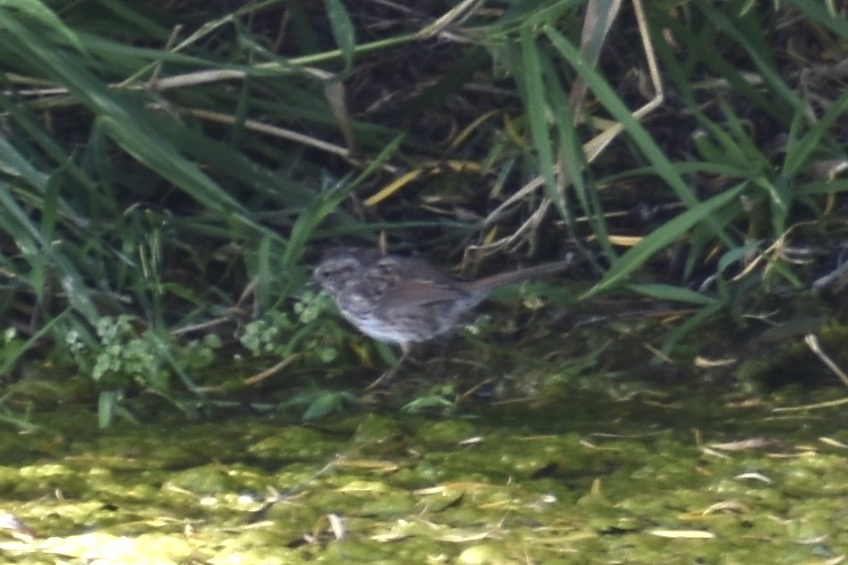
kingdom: Animalia
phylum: Chordata
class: Aves
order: Passeriformes
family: Passerellidae
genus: Melospiza
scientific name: Melospiza melodia
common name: Song sparrow
